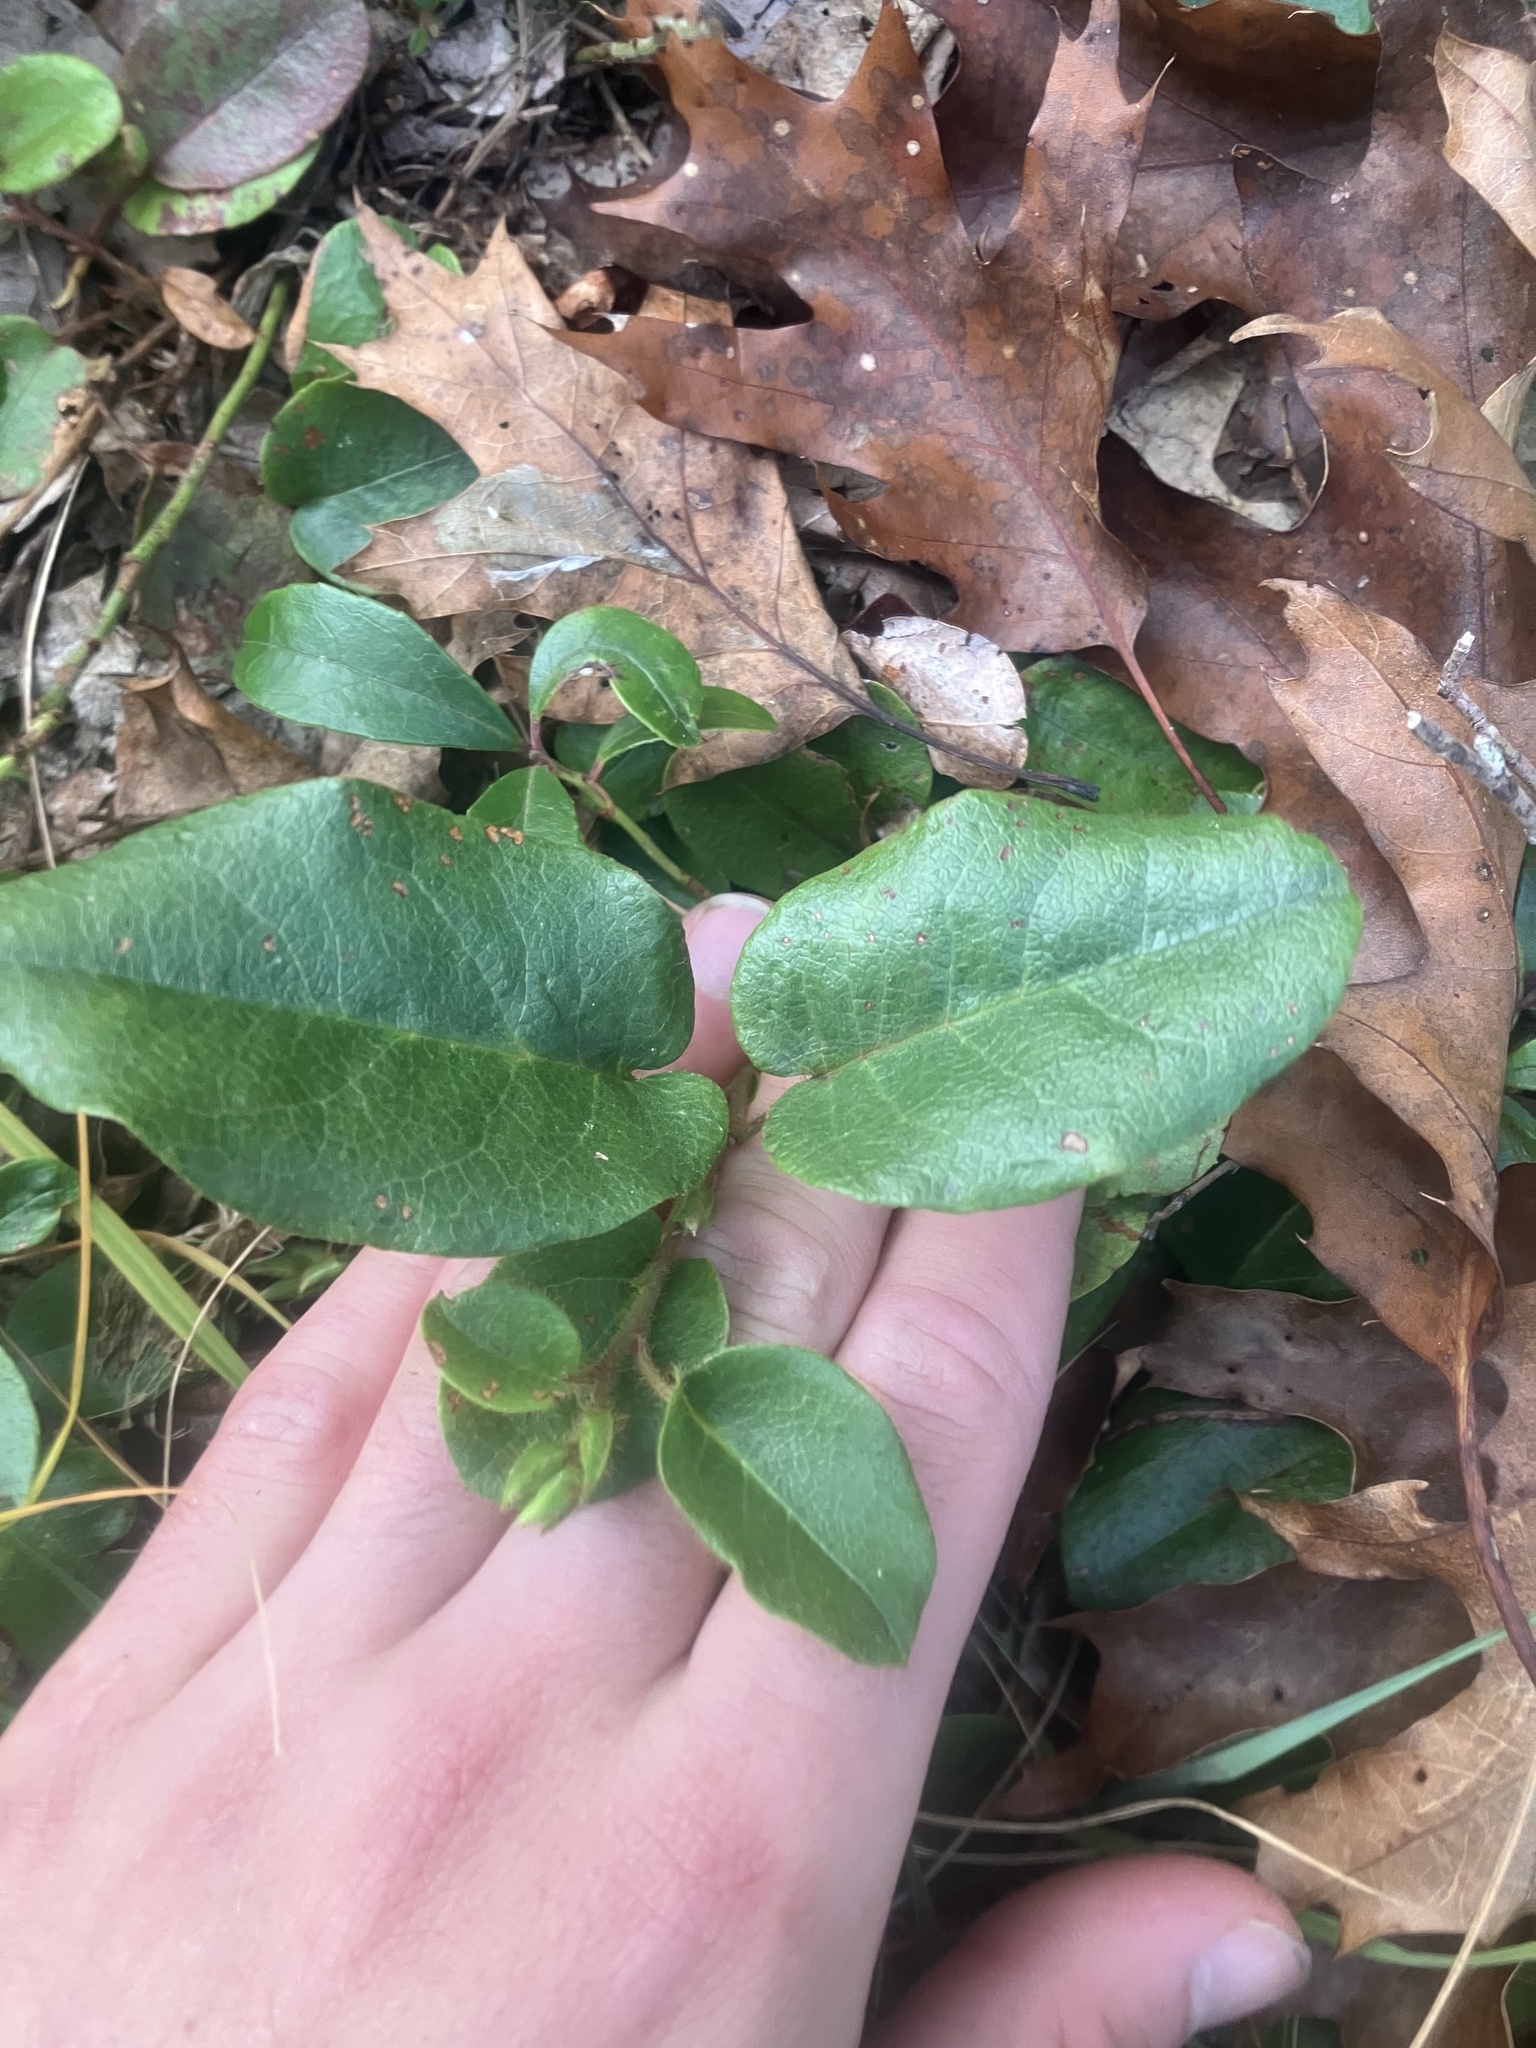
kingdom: Plantae
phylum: Tracheophyta
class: Magnoliopsida
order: Ericales
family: Ericaceae
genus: Epigaea
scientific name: Epigaea repens
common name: Gravelroot
